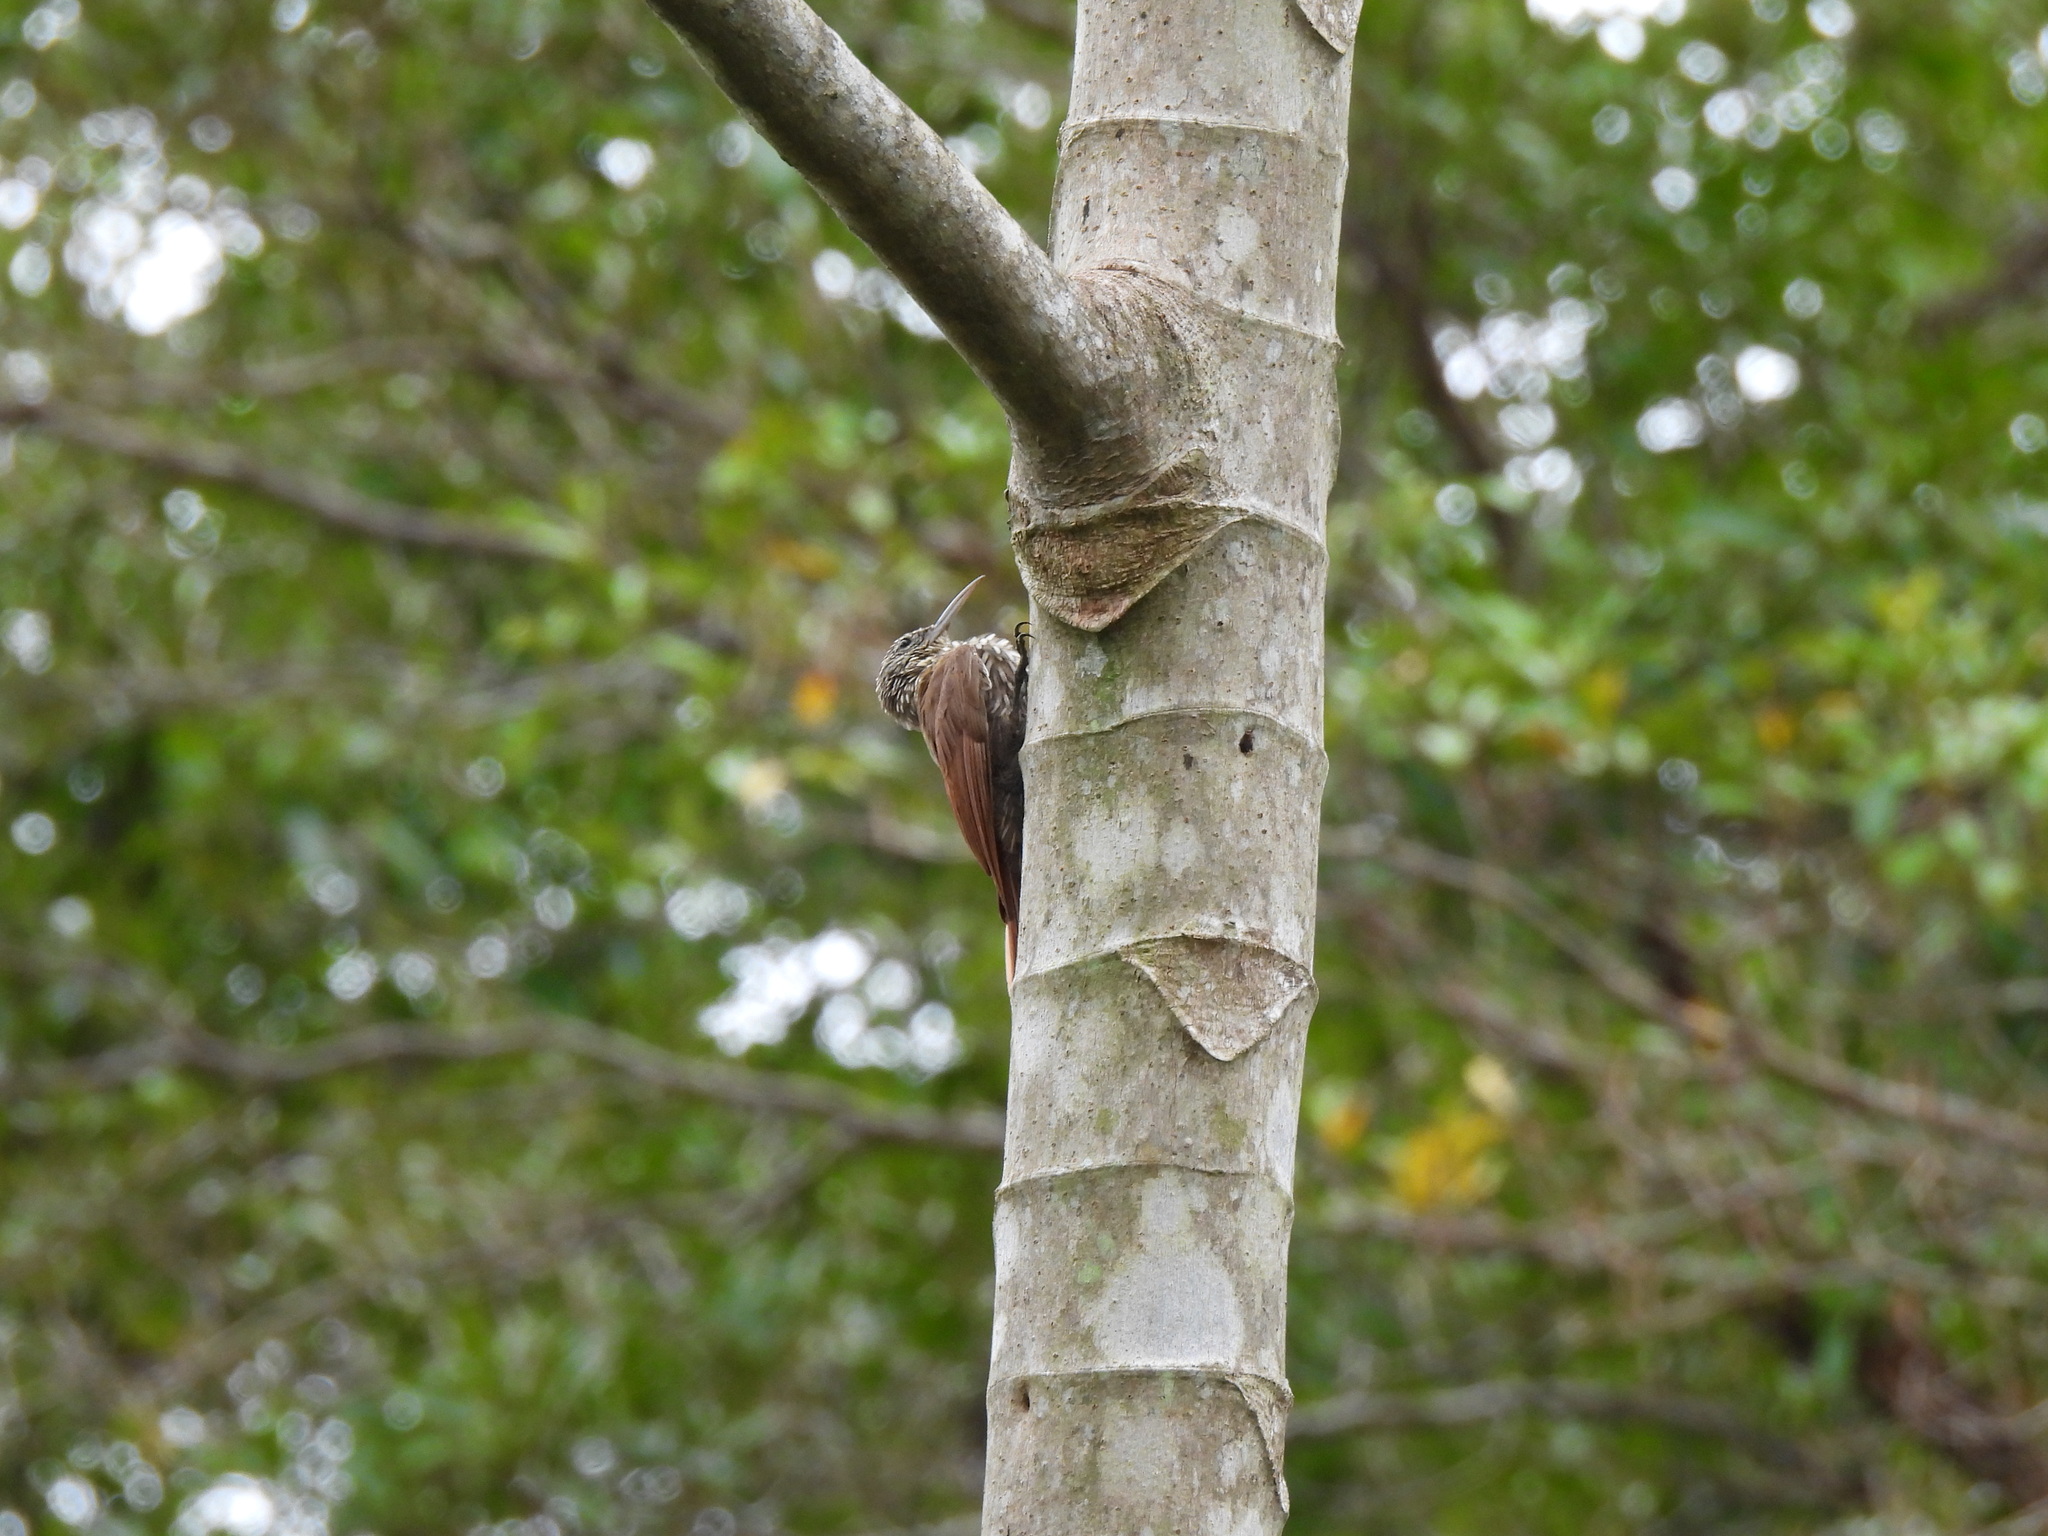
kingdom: Animalia
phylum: Chordata
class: Aves
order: Passeriformes
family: Furnariidae
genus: Lepidocolaptes
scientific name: Lepidocolaptes souleyetii
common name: Streak-headed woodcreeper
